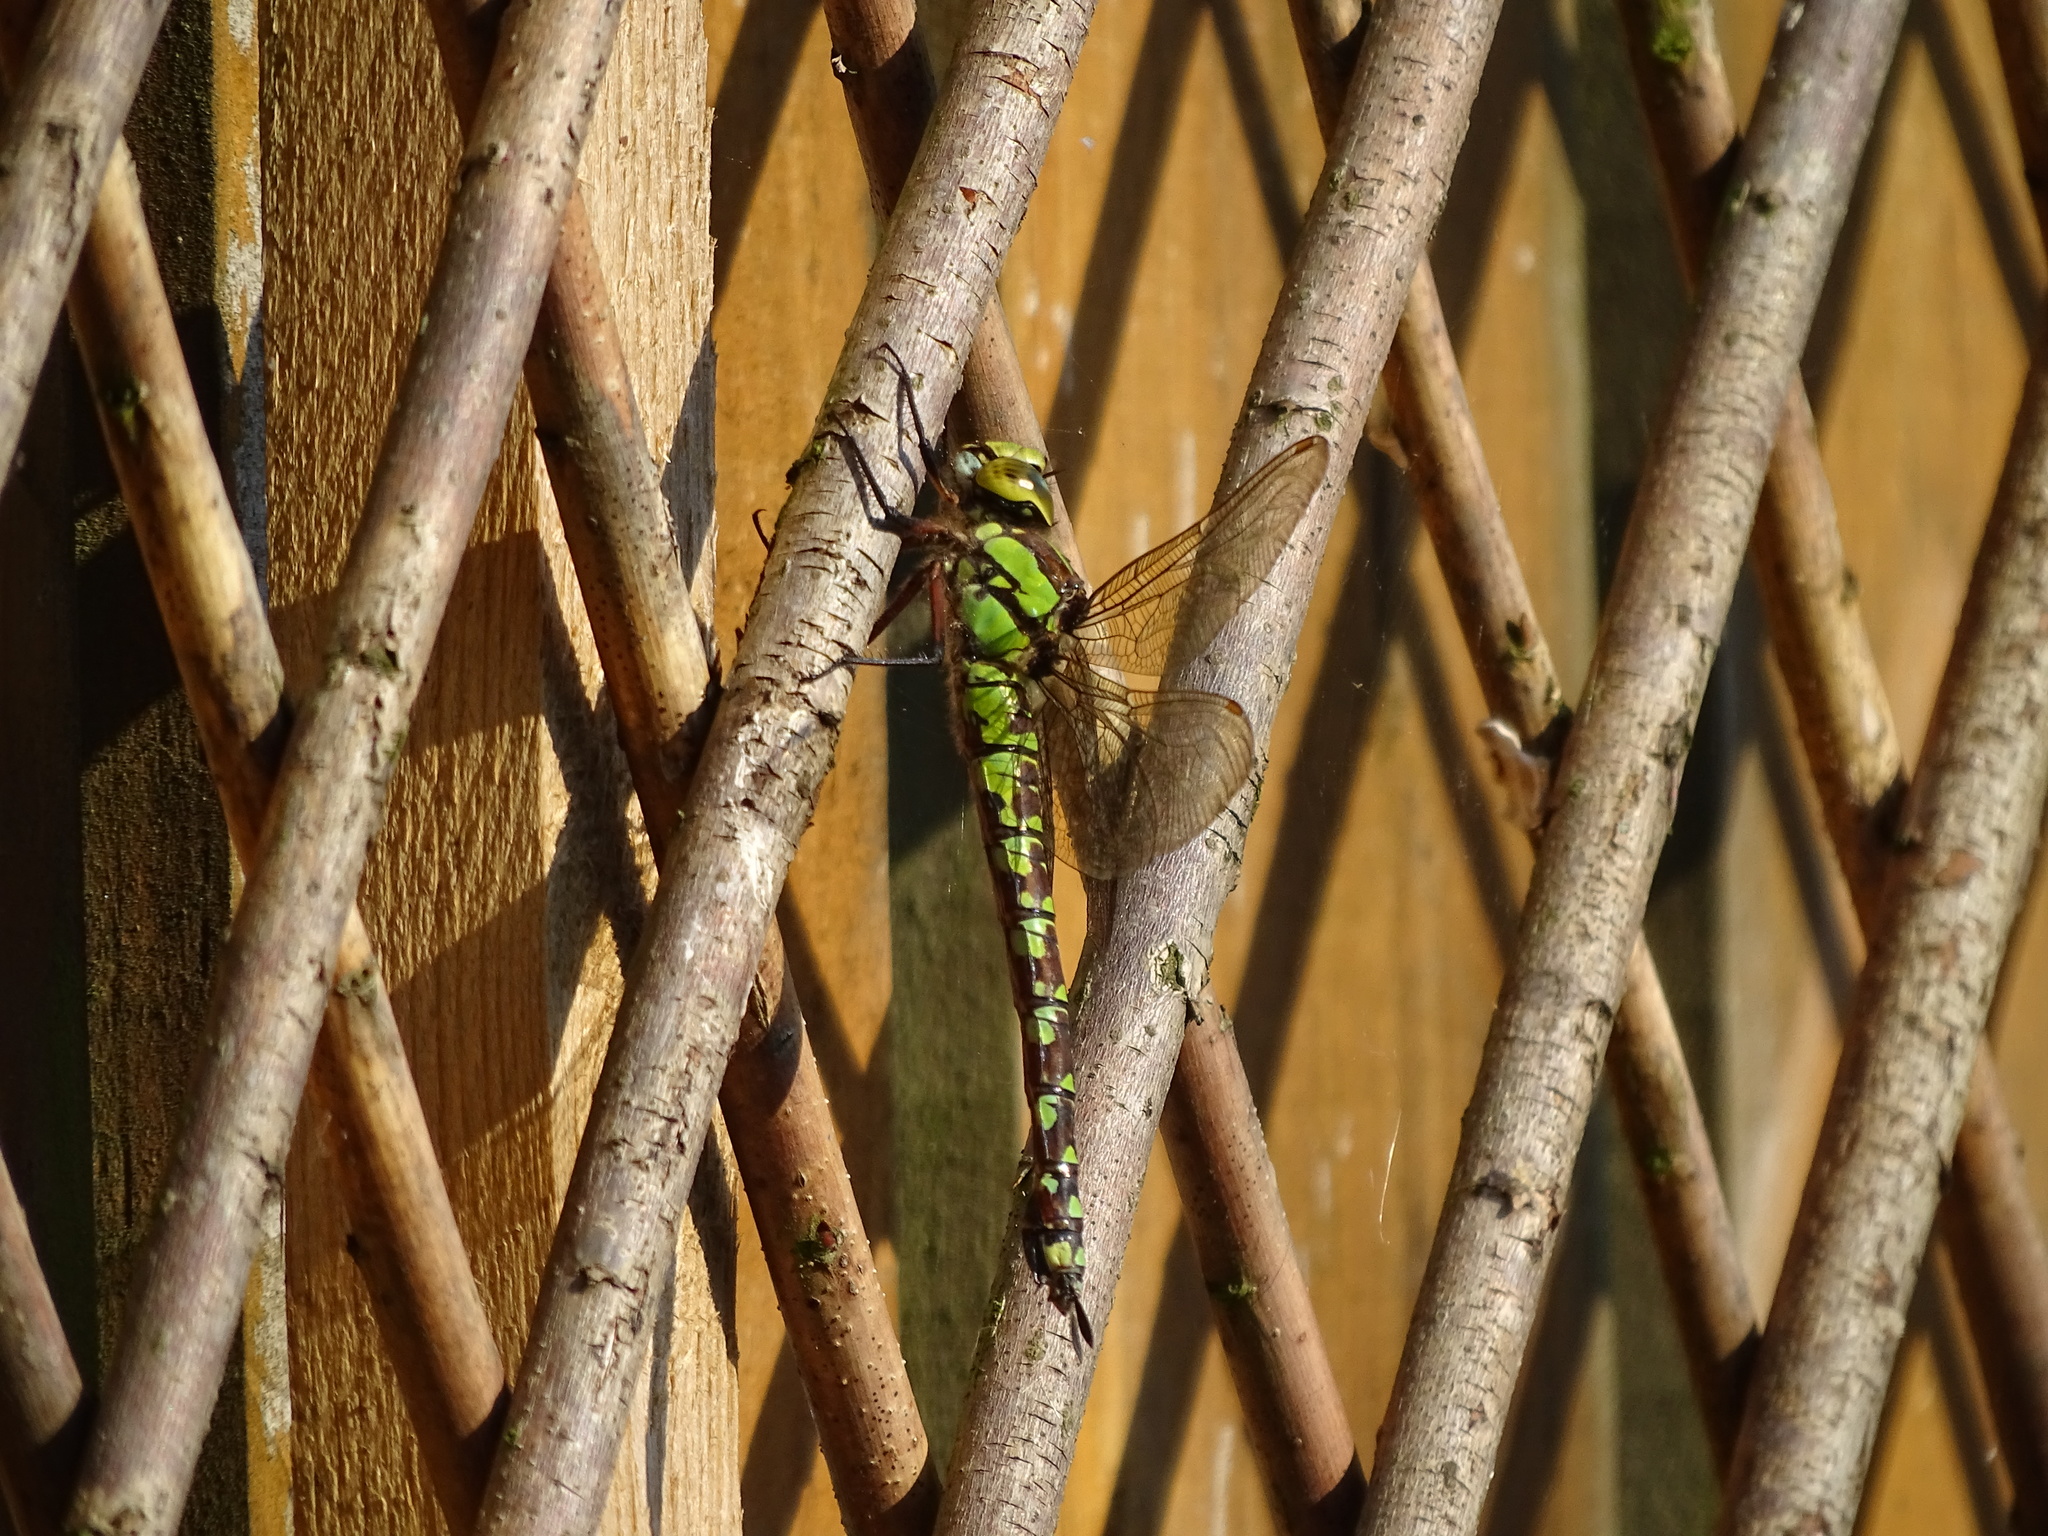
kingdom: Animalia
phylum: Arthropoda
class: Insecta
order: Odonata
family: Aeshnidae
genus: Aeshna
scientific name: Aeshna cyanea
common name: Southern hawker
